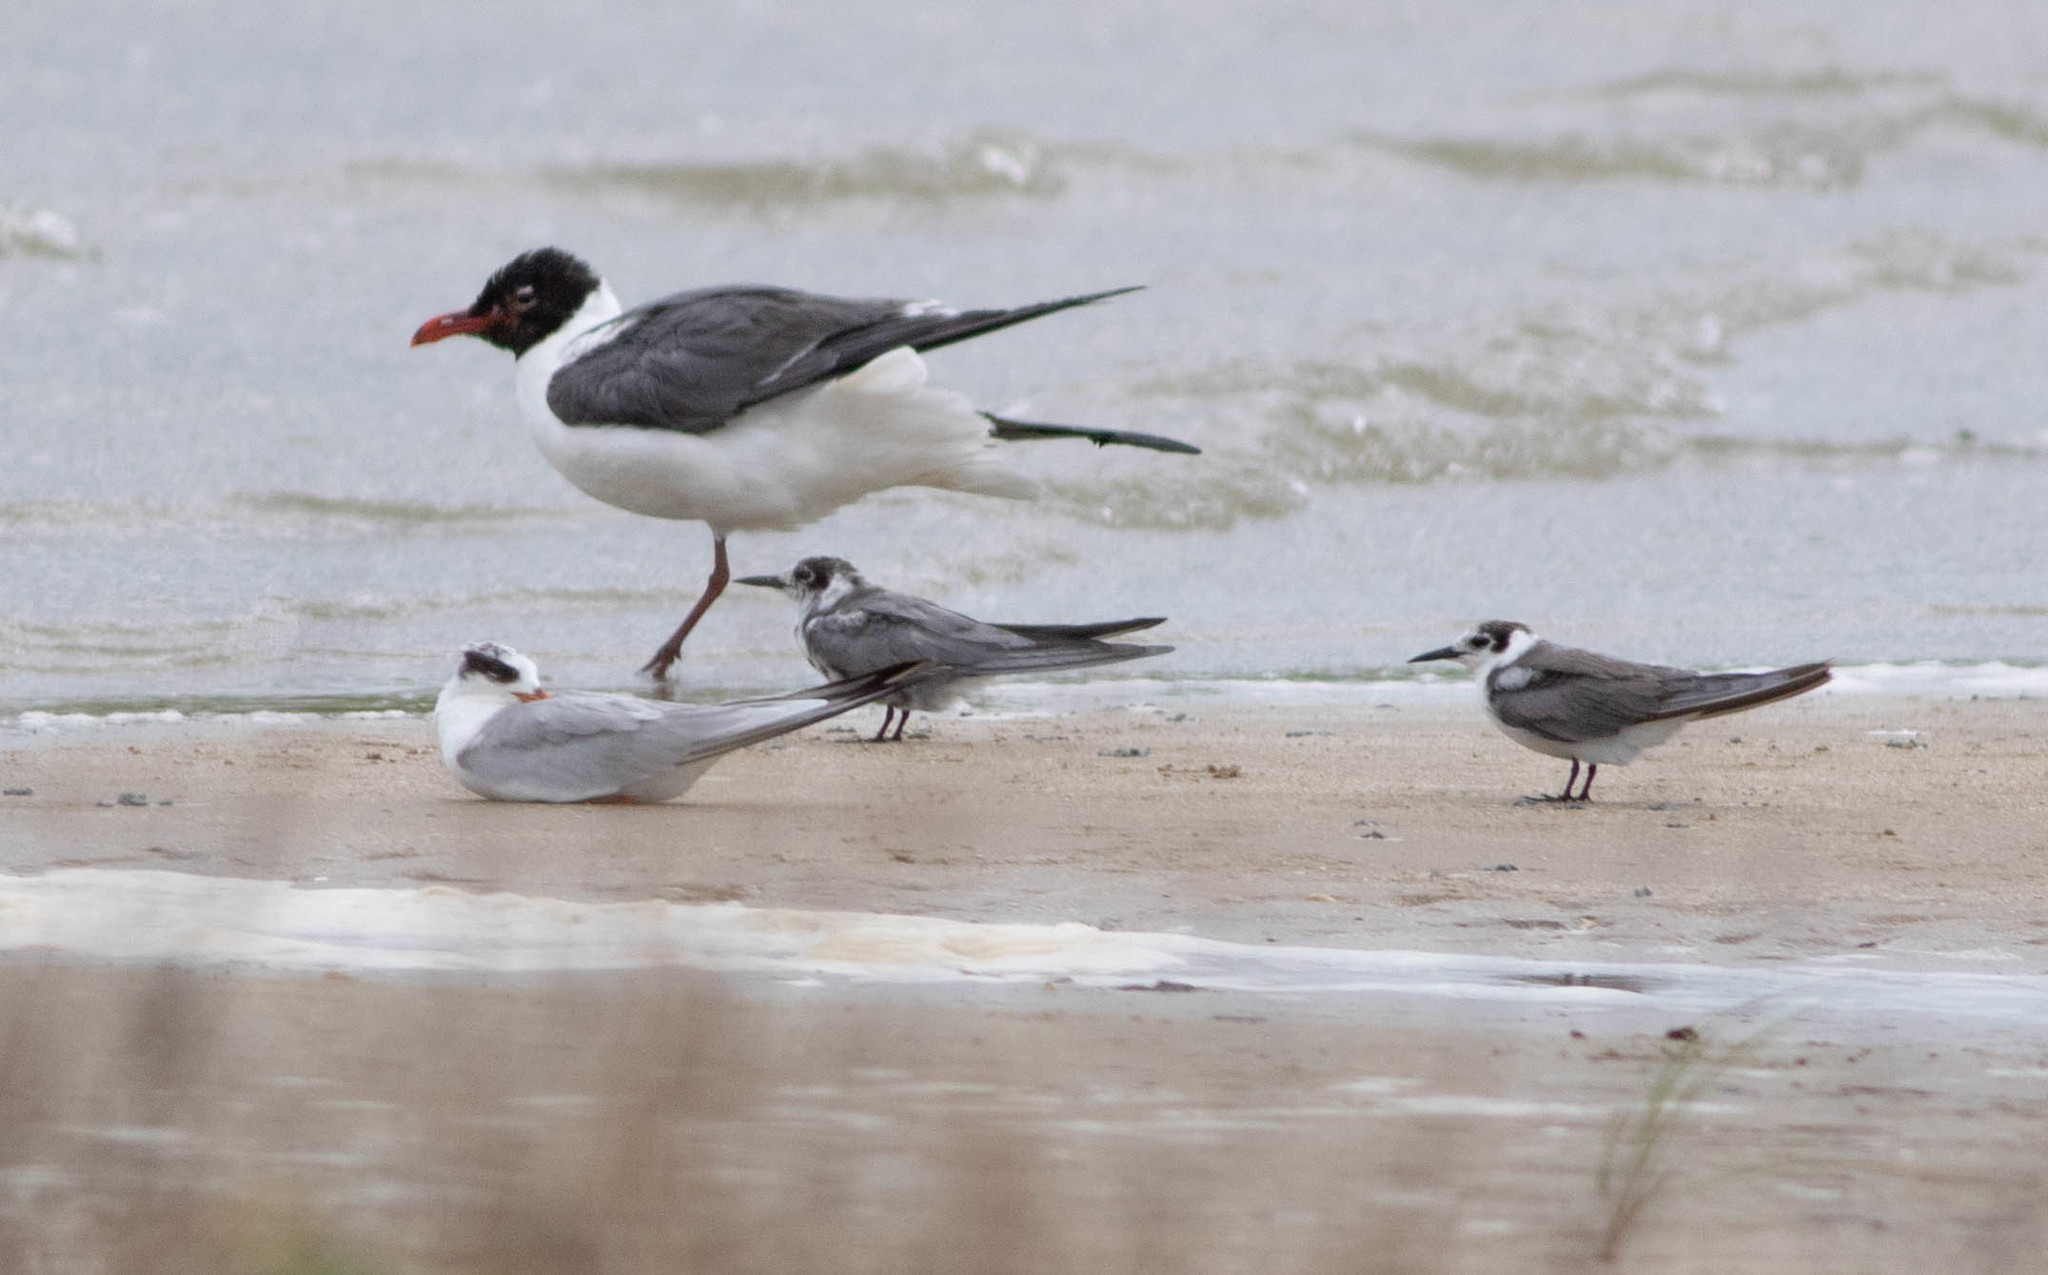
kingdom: Animalia
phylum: Chordata
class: Aves
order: Charadriiformes
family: Laridae
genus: Chlidonias
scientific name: Chlidonias niger
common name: Black tern
